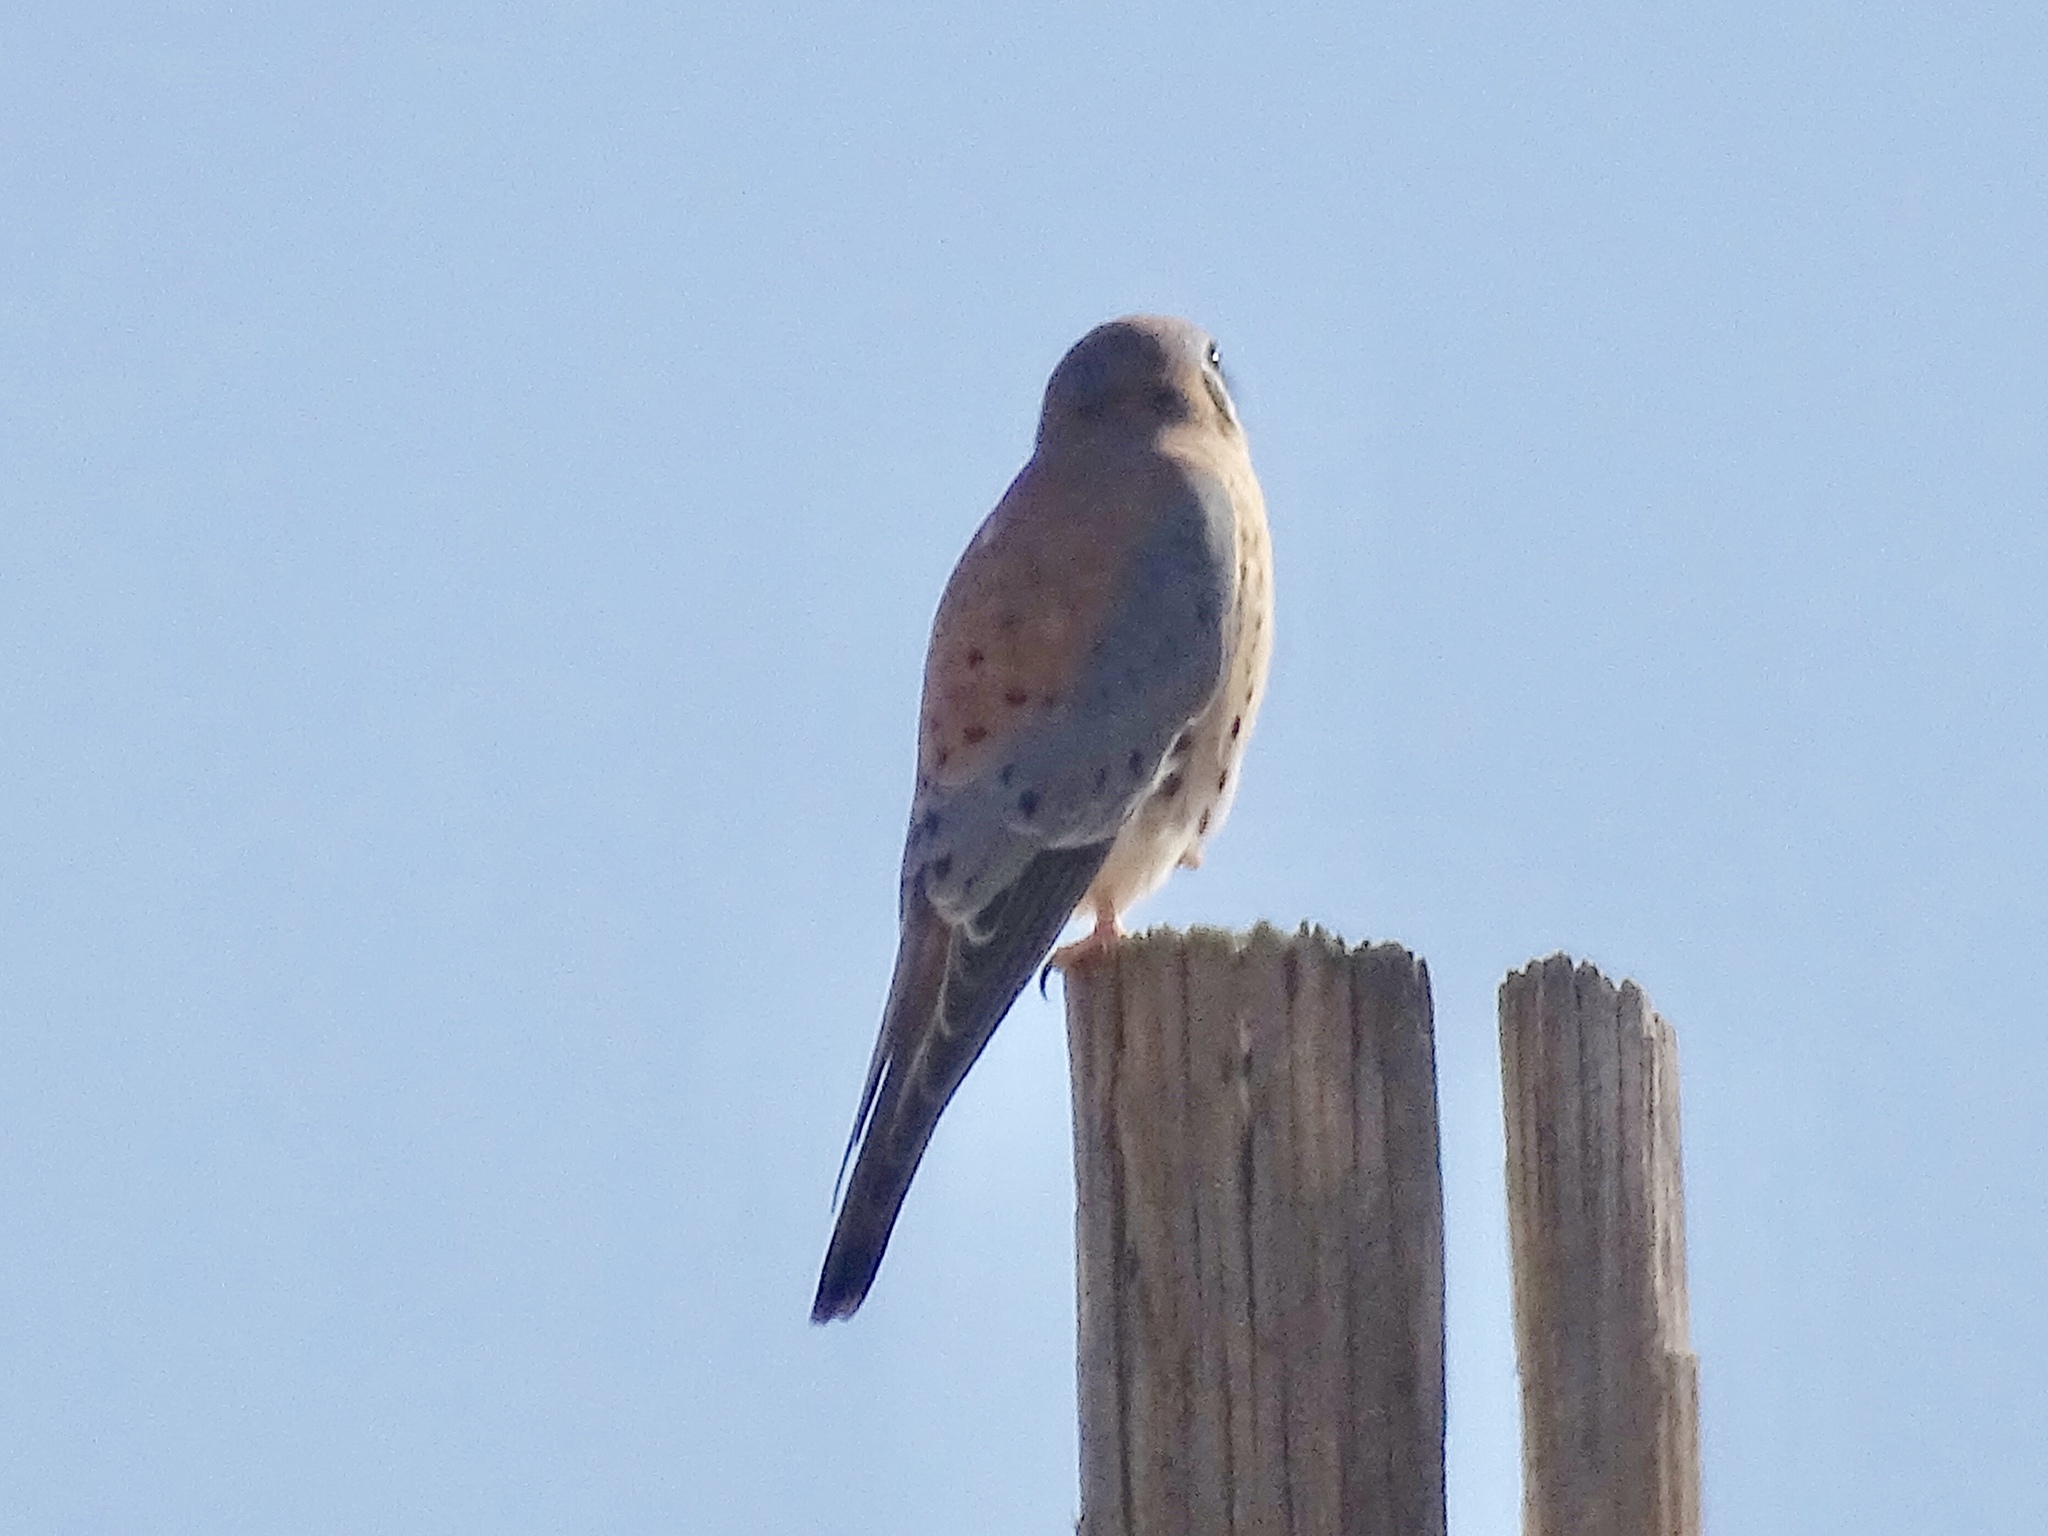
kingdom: Animalia
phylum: Chordata
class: Aves
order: Falconiformes
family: Falconidae
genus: Falco
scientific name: Falco sparverius
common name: American kestrel
